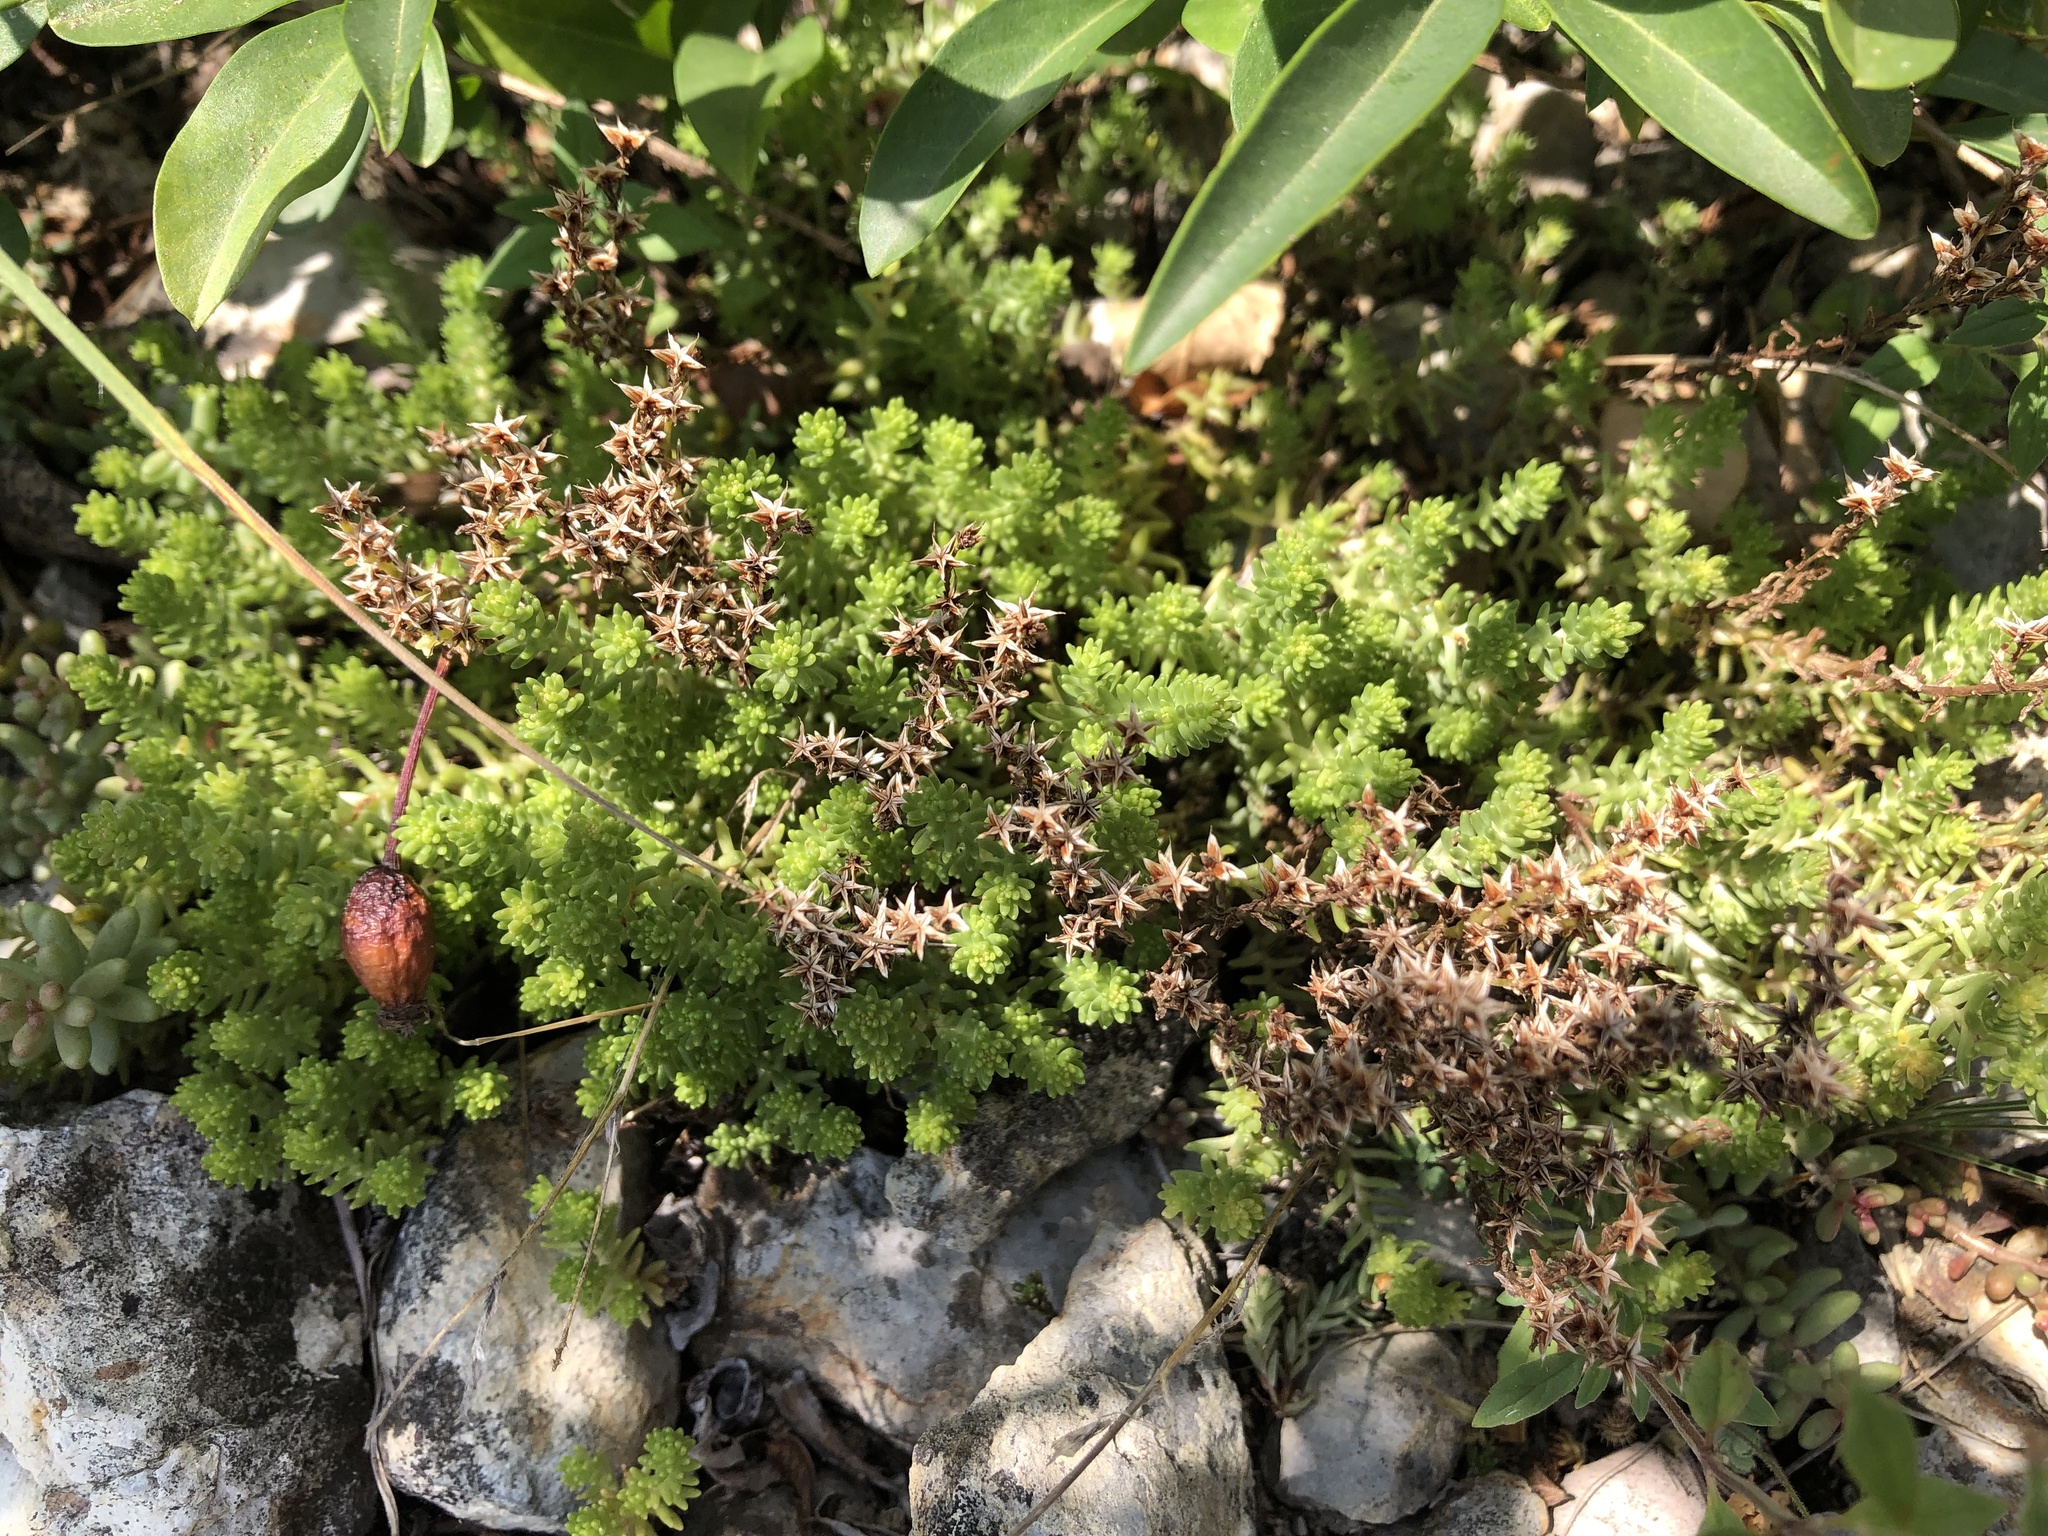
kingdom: Plantae
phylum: Tracheophyta
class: Magnoliopsida
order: Saxifragales
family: Crassulaceae
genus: Sedum
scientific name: Sedum sexangulare
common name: Tasteless stonecrop
